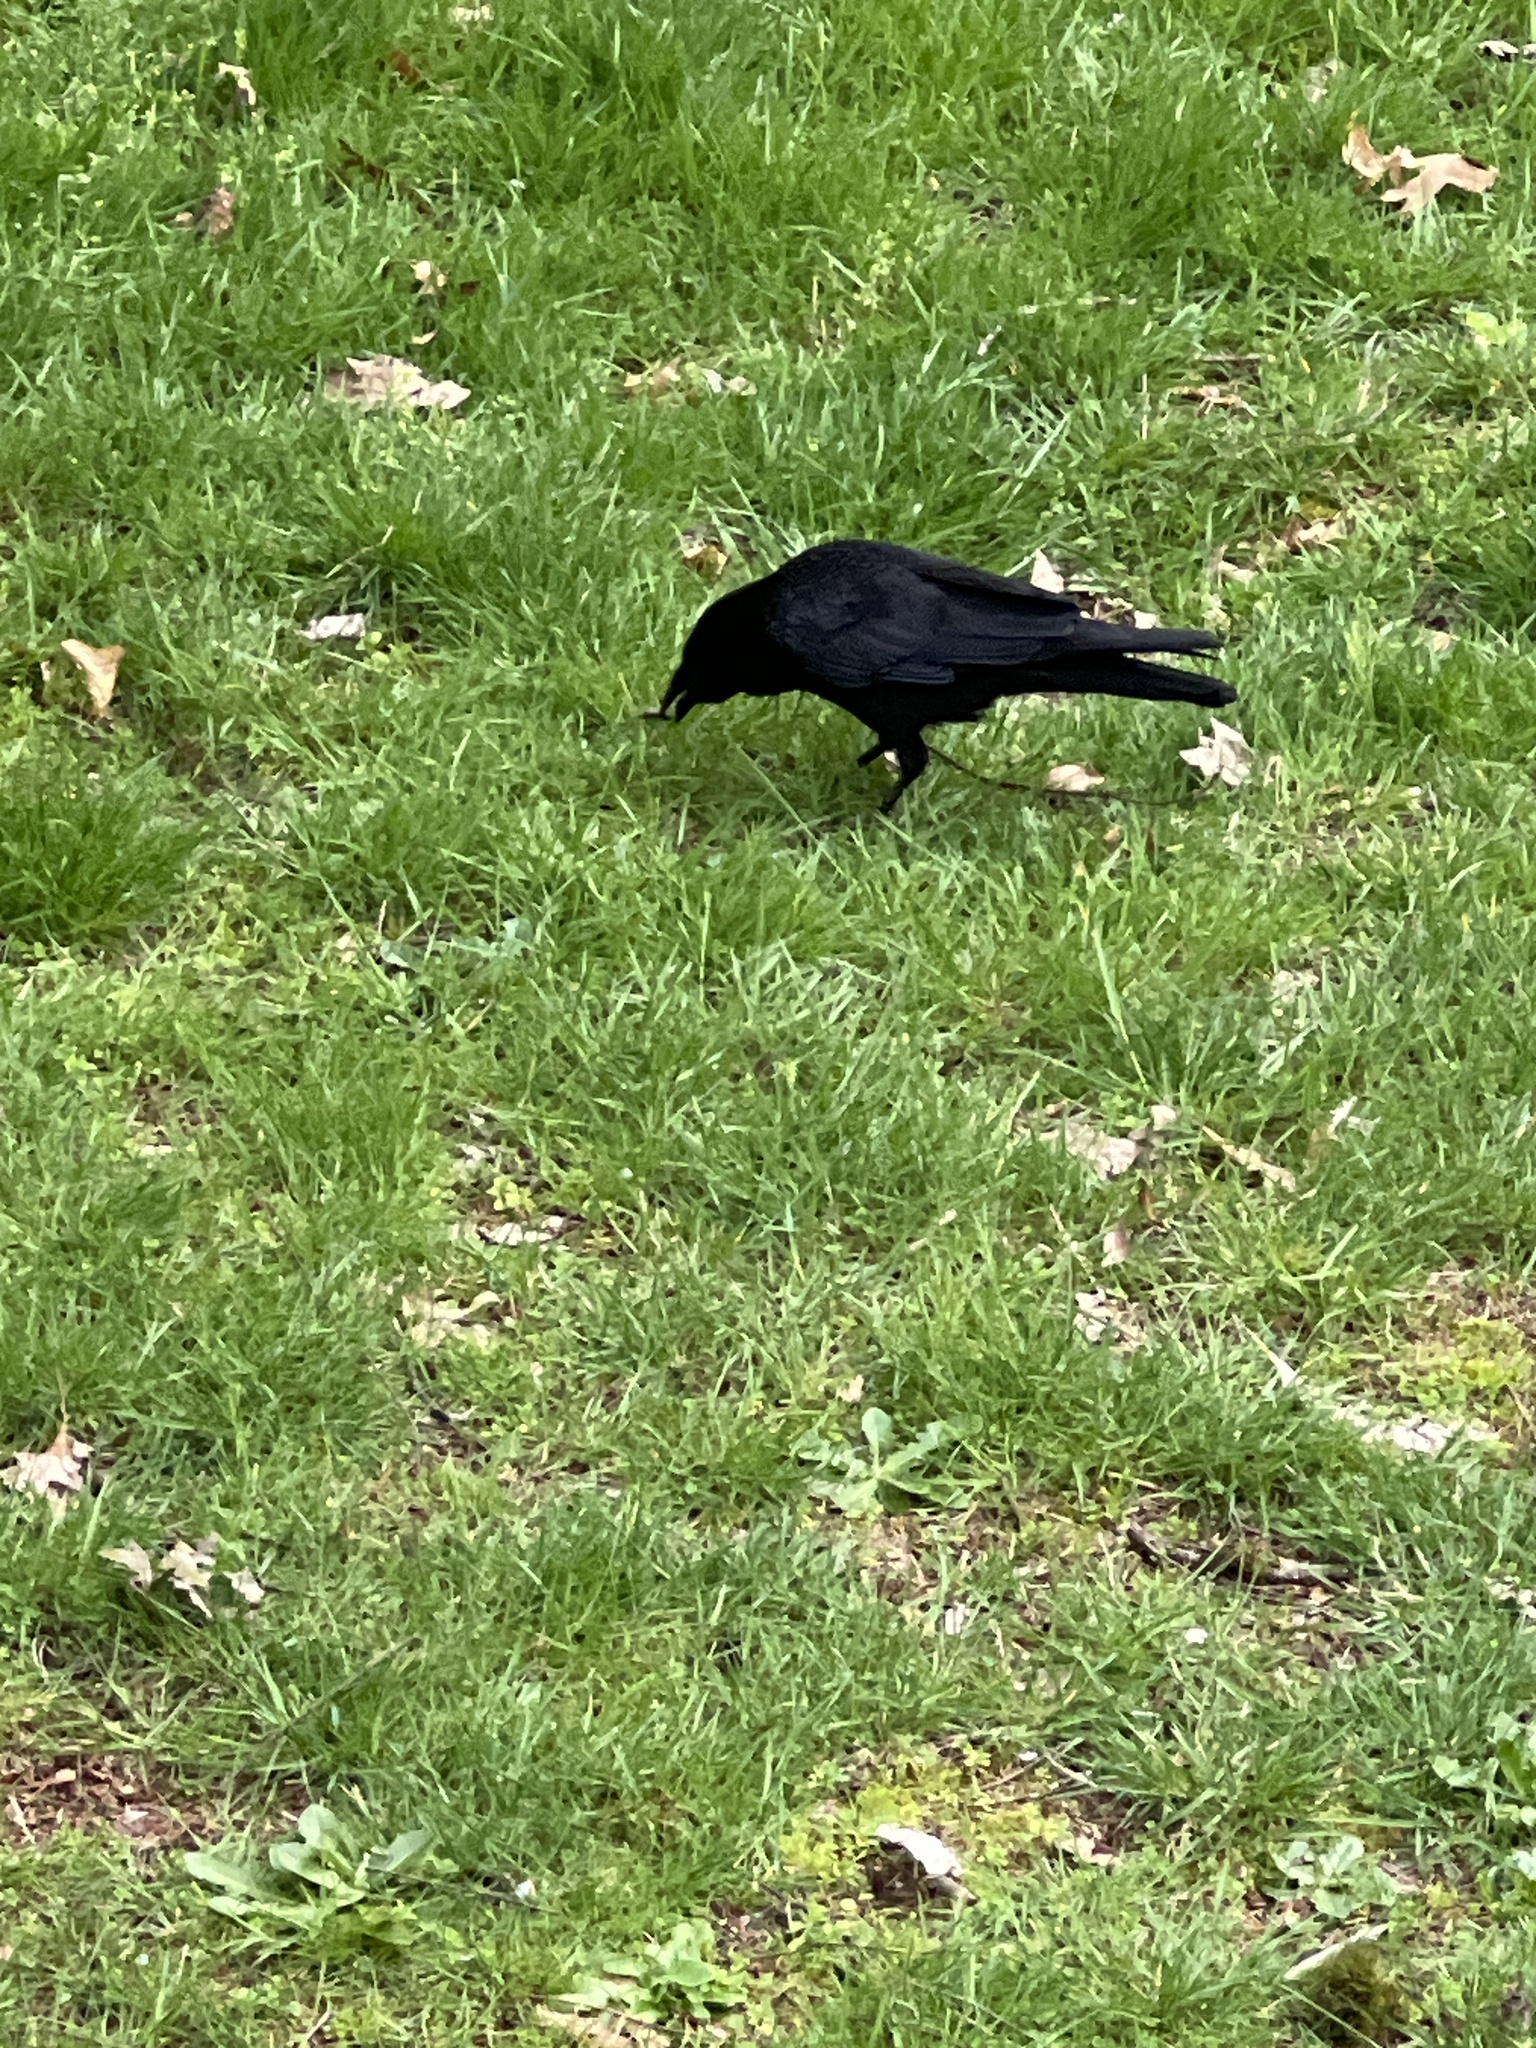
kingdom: Animalia
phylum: Chordata
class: Aves
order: Passeriformes
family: Corvidae
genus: Corvus
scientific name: Corvus brachyrhynchos
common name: American crow
